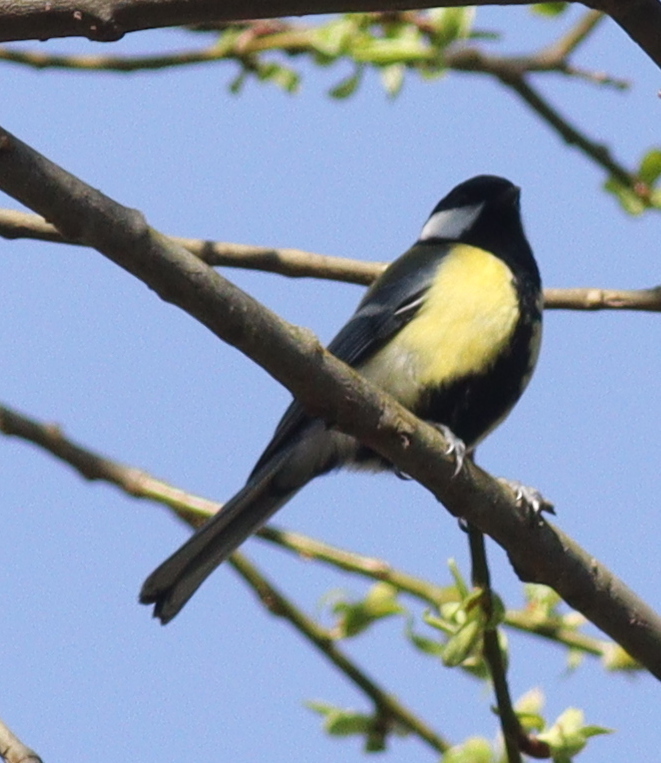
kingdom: Animalia
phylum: Chordata
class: Aves
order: Passeriformes
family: Paridae
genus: Parus
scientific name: Parus major
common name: Great tit
